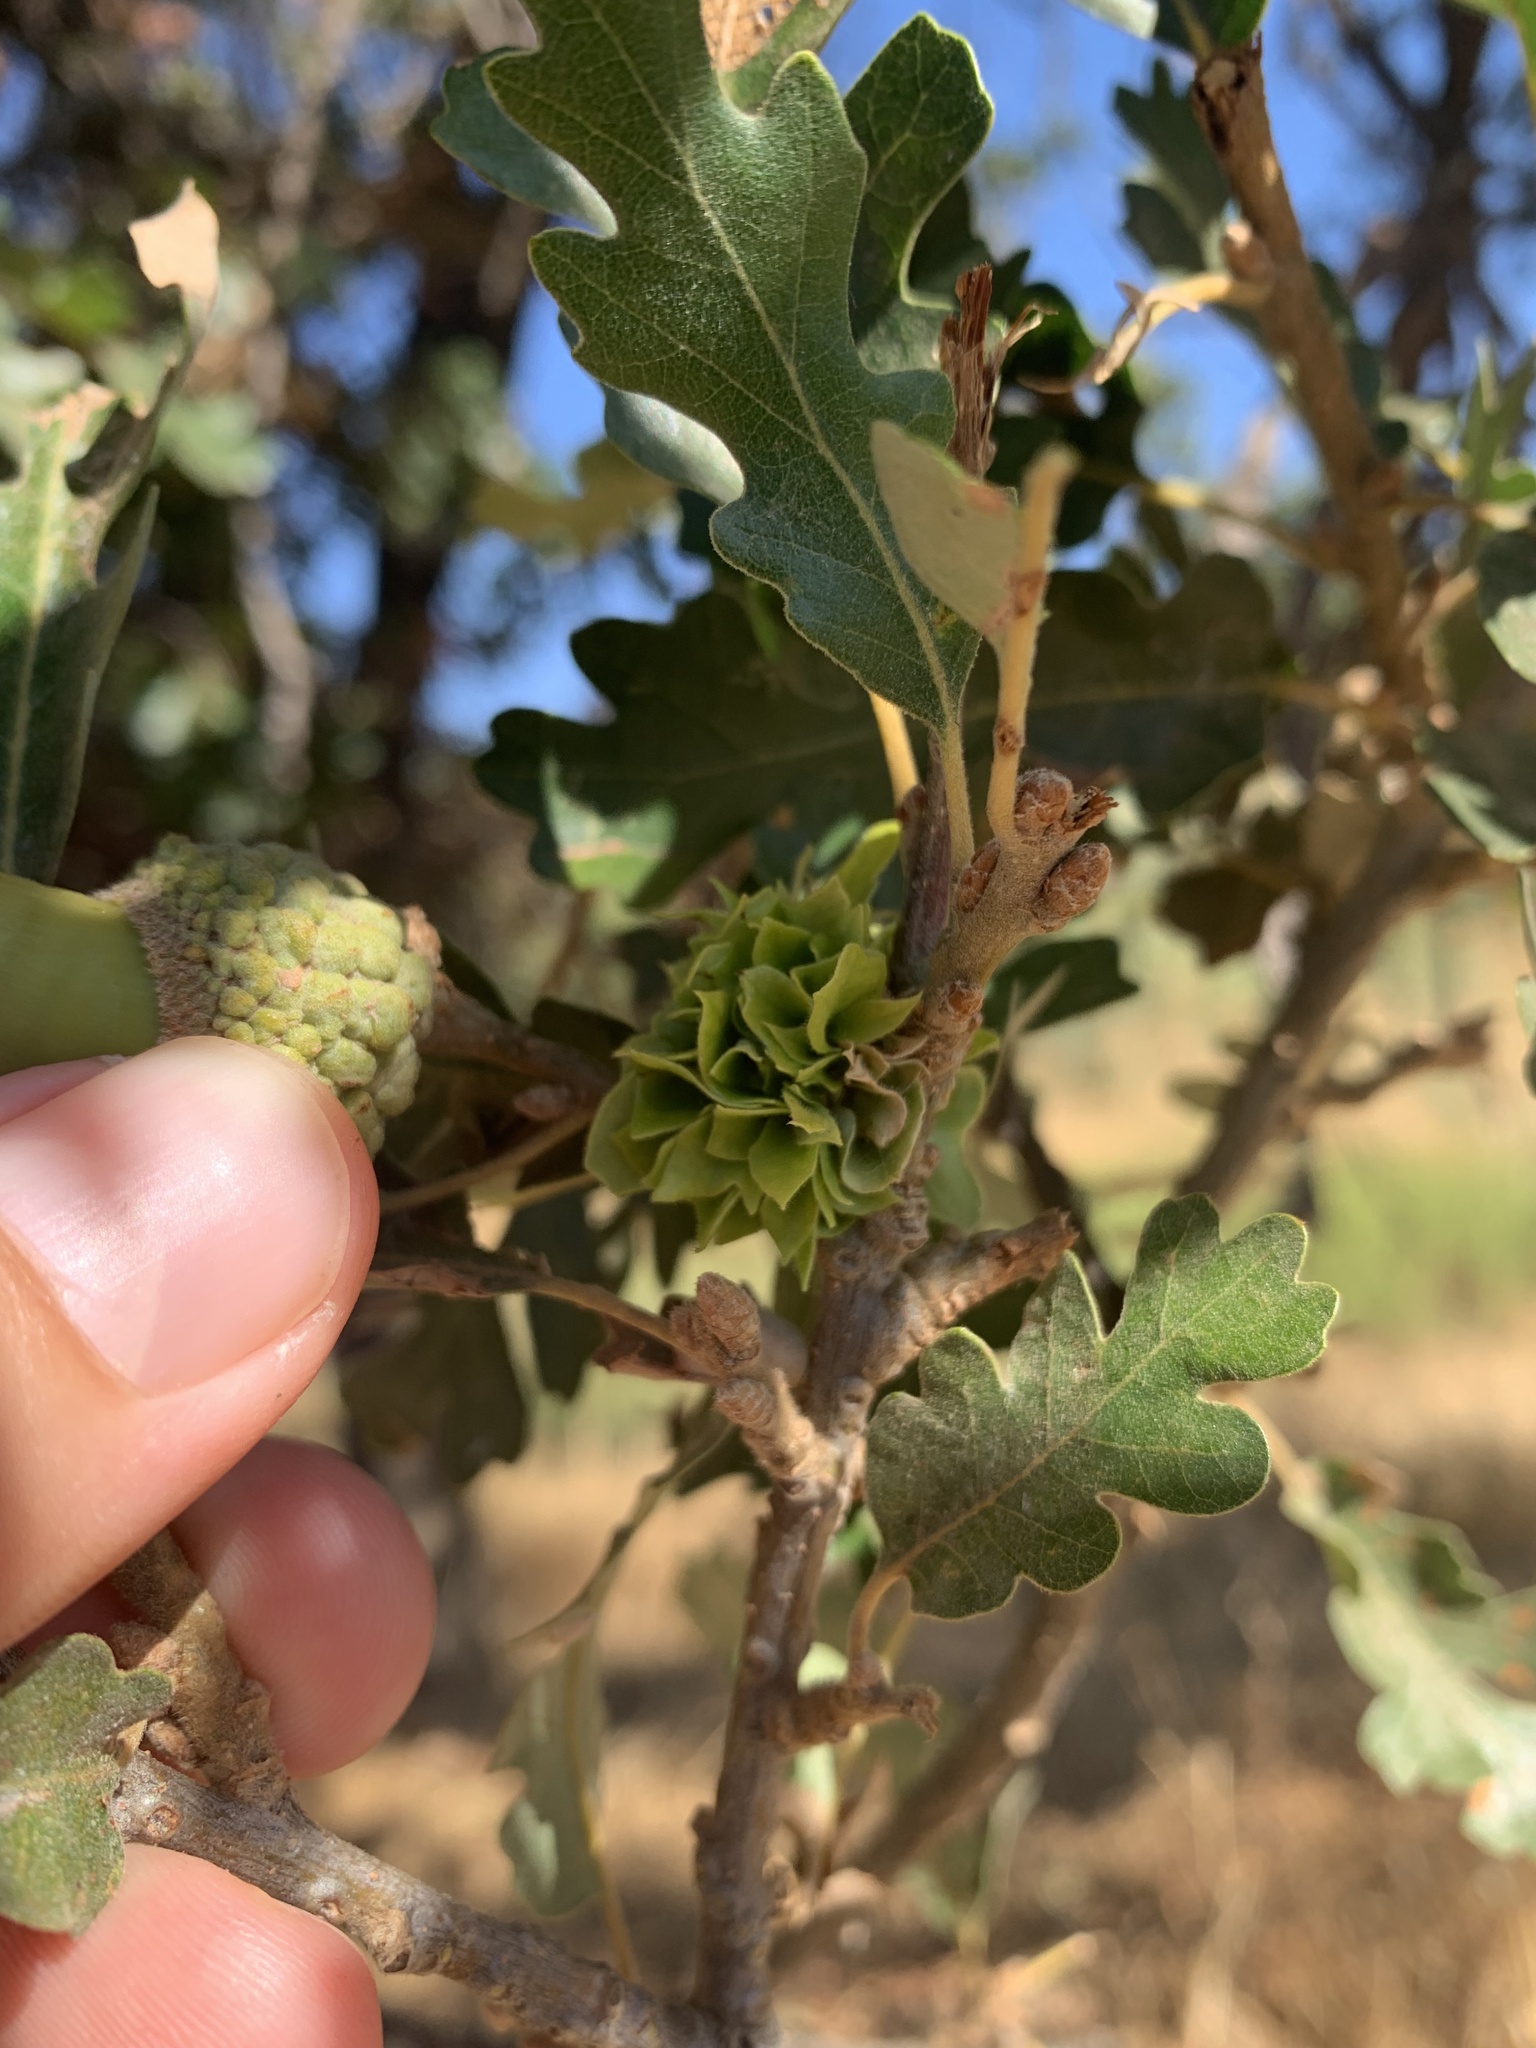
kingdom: Animalia
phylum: Arthropoda
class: Insecta
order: Hymenoptera
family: Cynipidae
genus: Andricus
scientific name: Andricus
